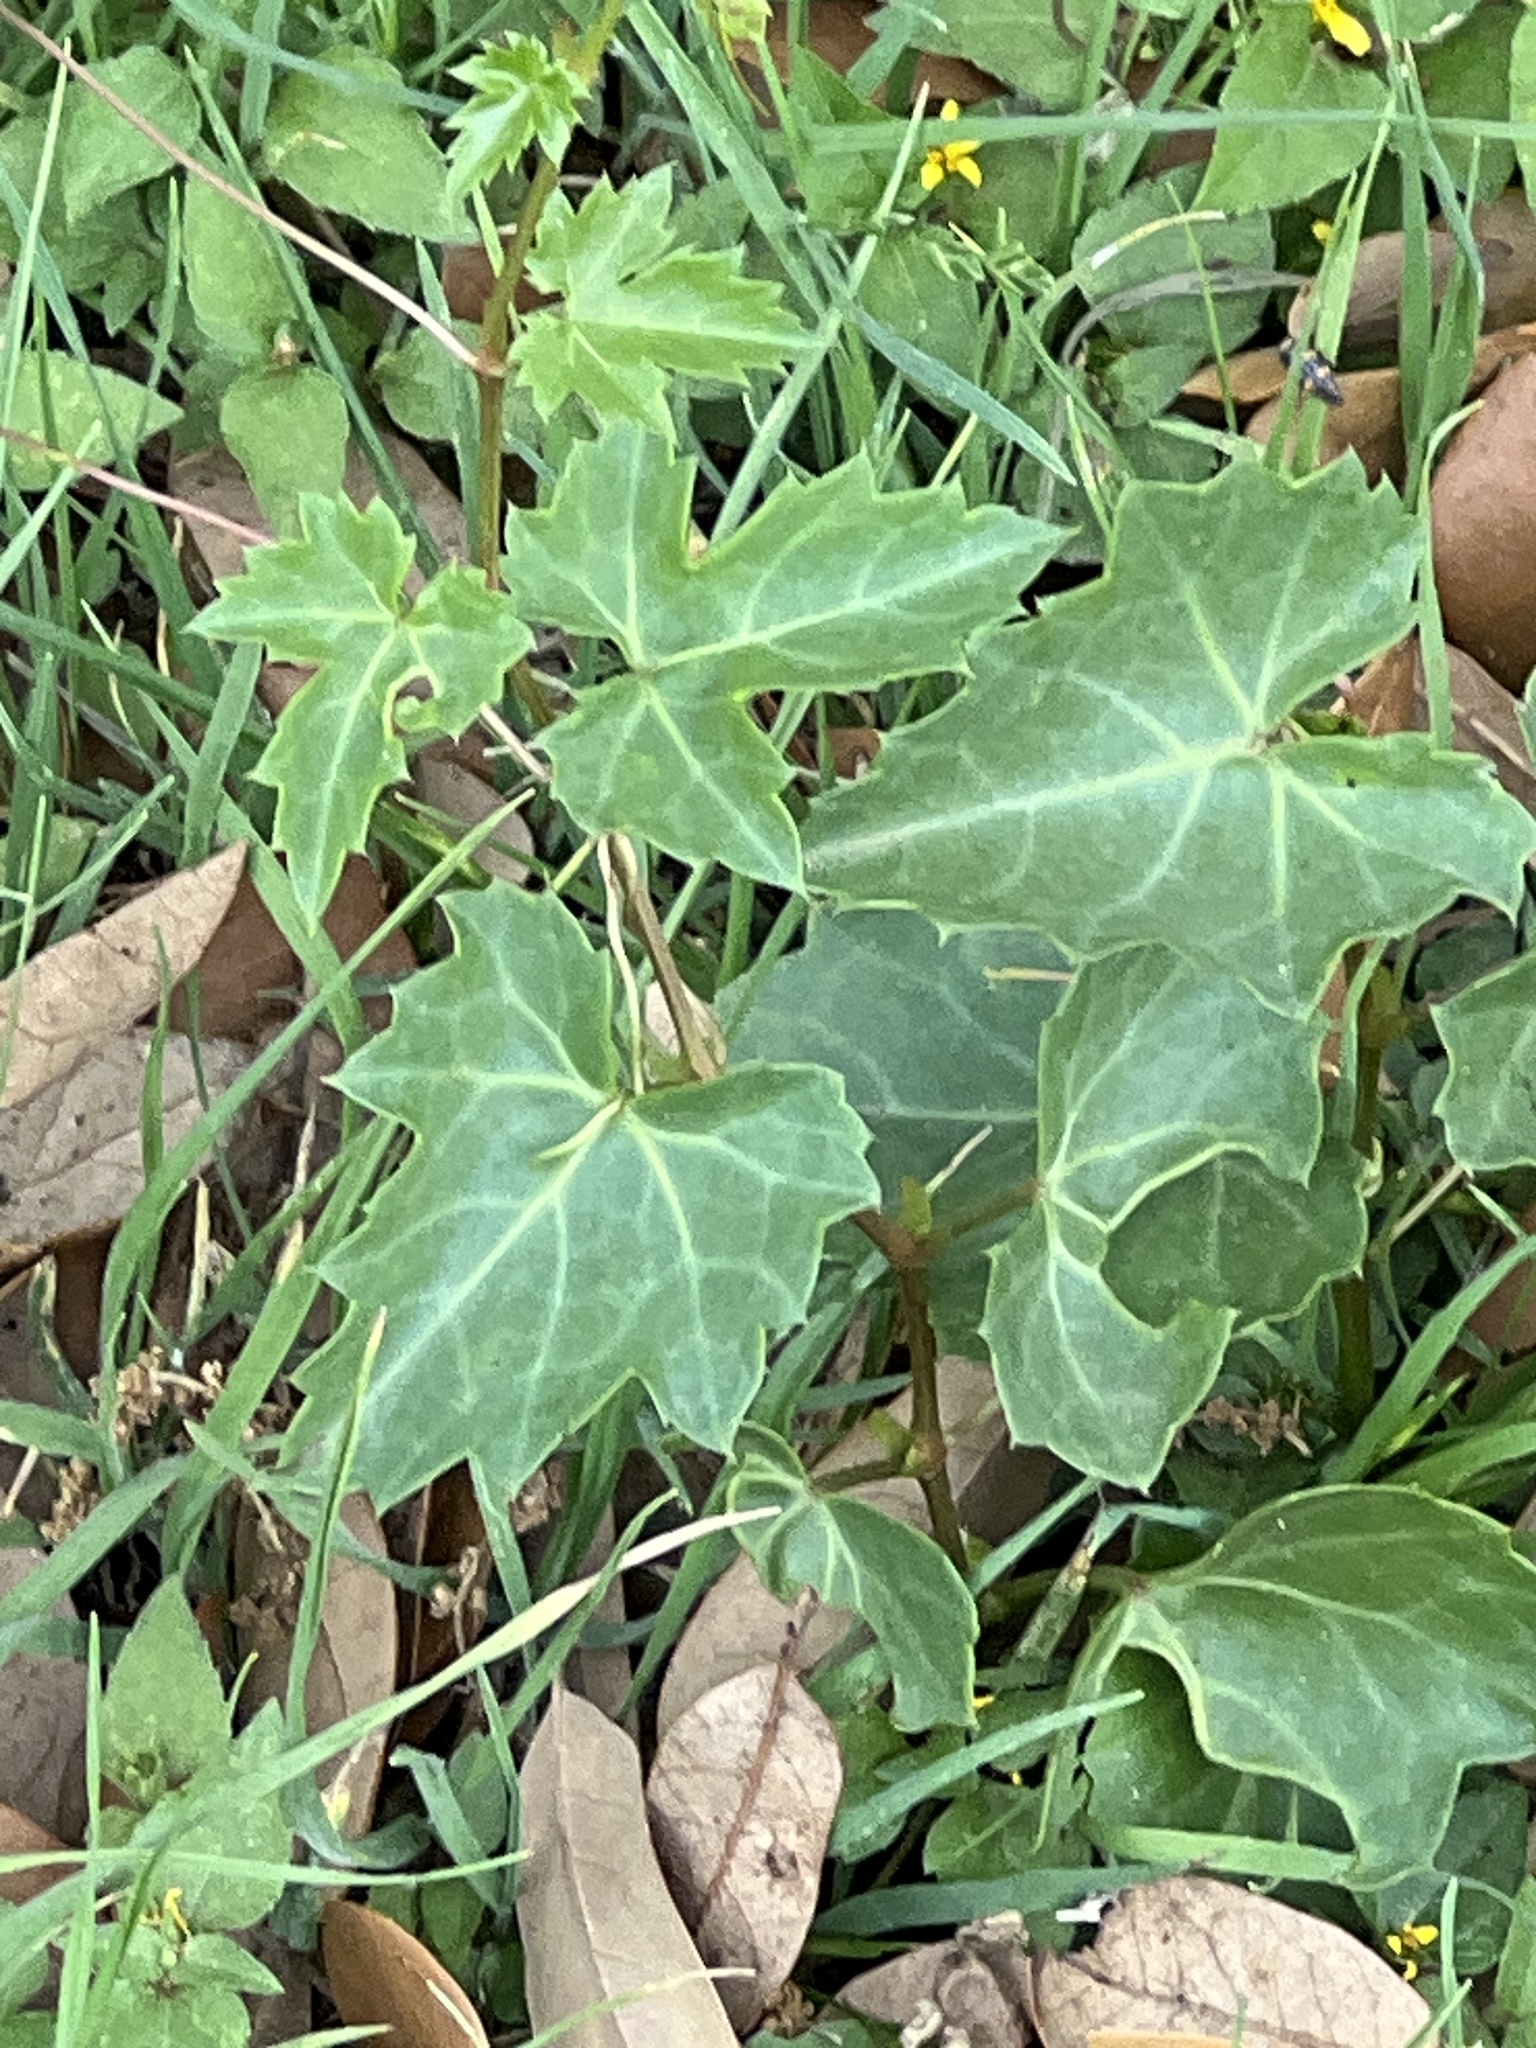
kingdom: Plantae
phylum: Tracheophyta
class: Magnoliopsida
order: Vitales
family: Vitaceae
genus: Cissus
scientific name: Cissus trifoliata
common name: Vine-sorrel
